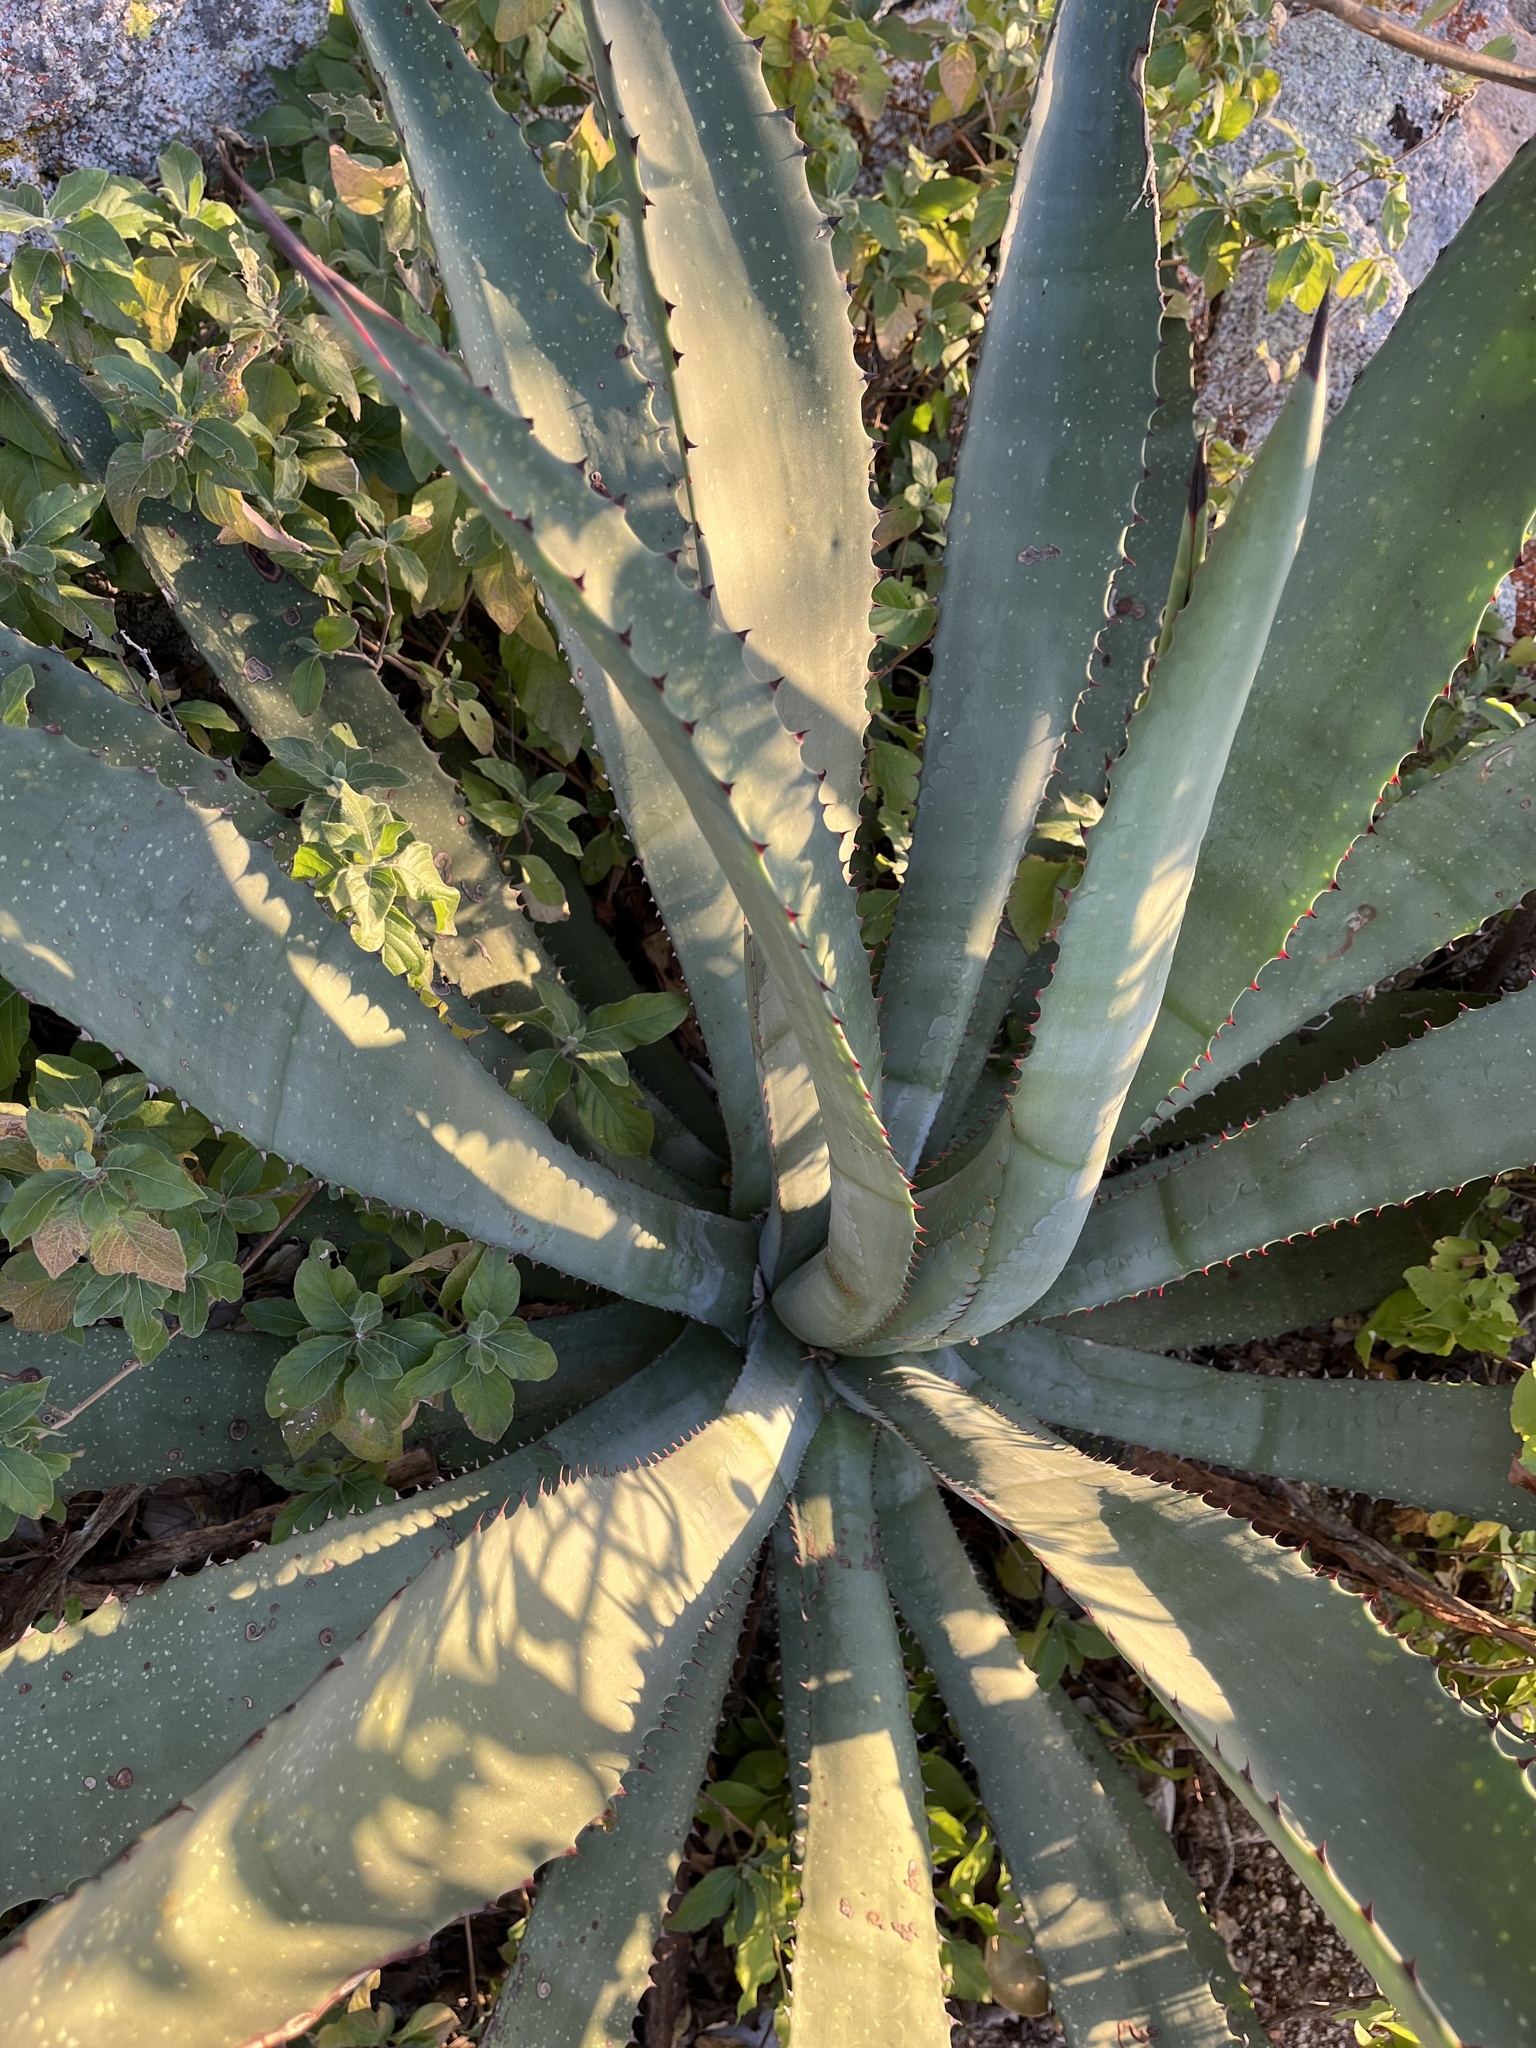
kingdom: Plantae
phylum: Tracheophyta
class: Liliopsida
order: Asparagales
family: Asparagaceae
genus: Agave
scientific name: Agave aurea
